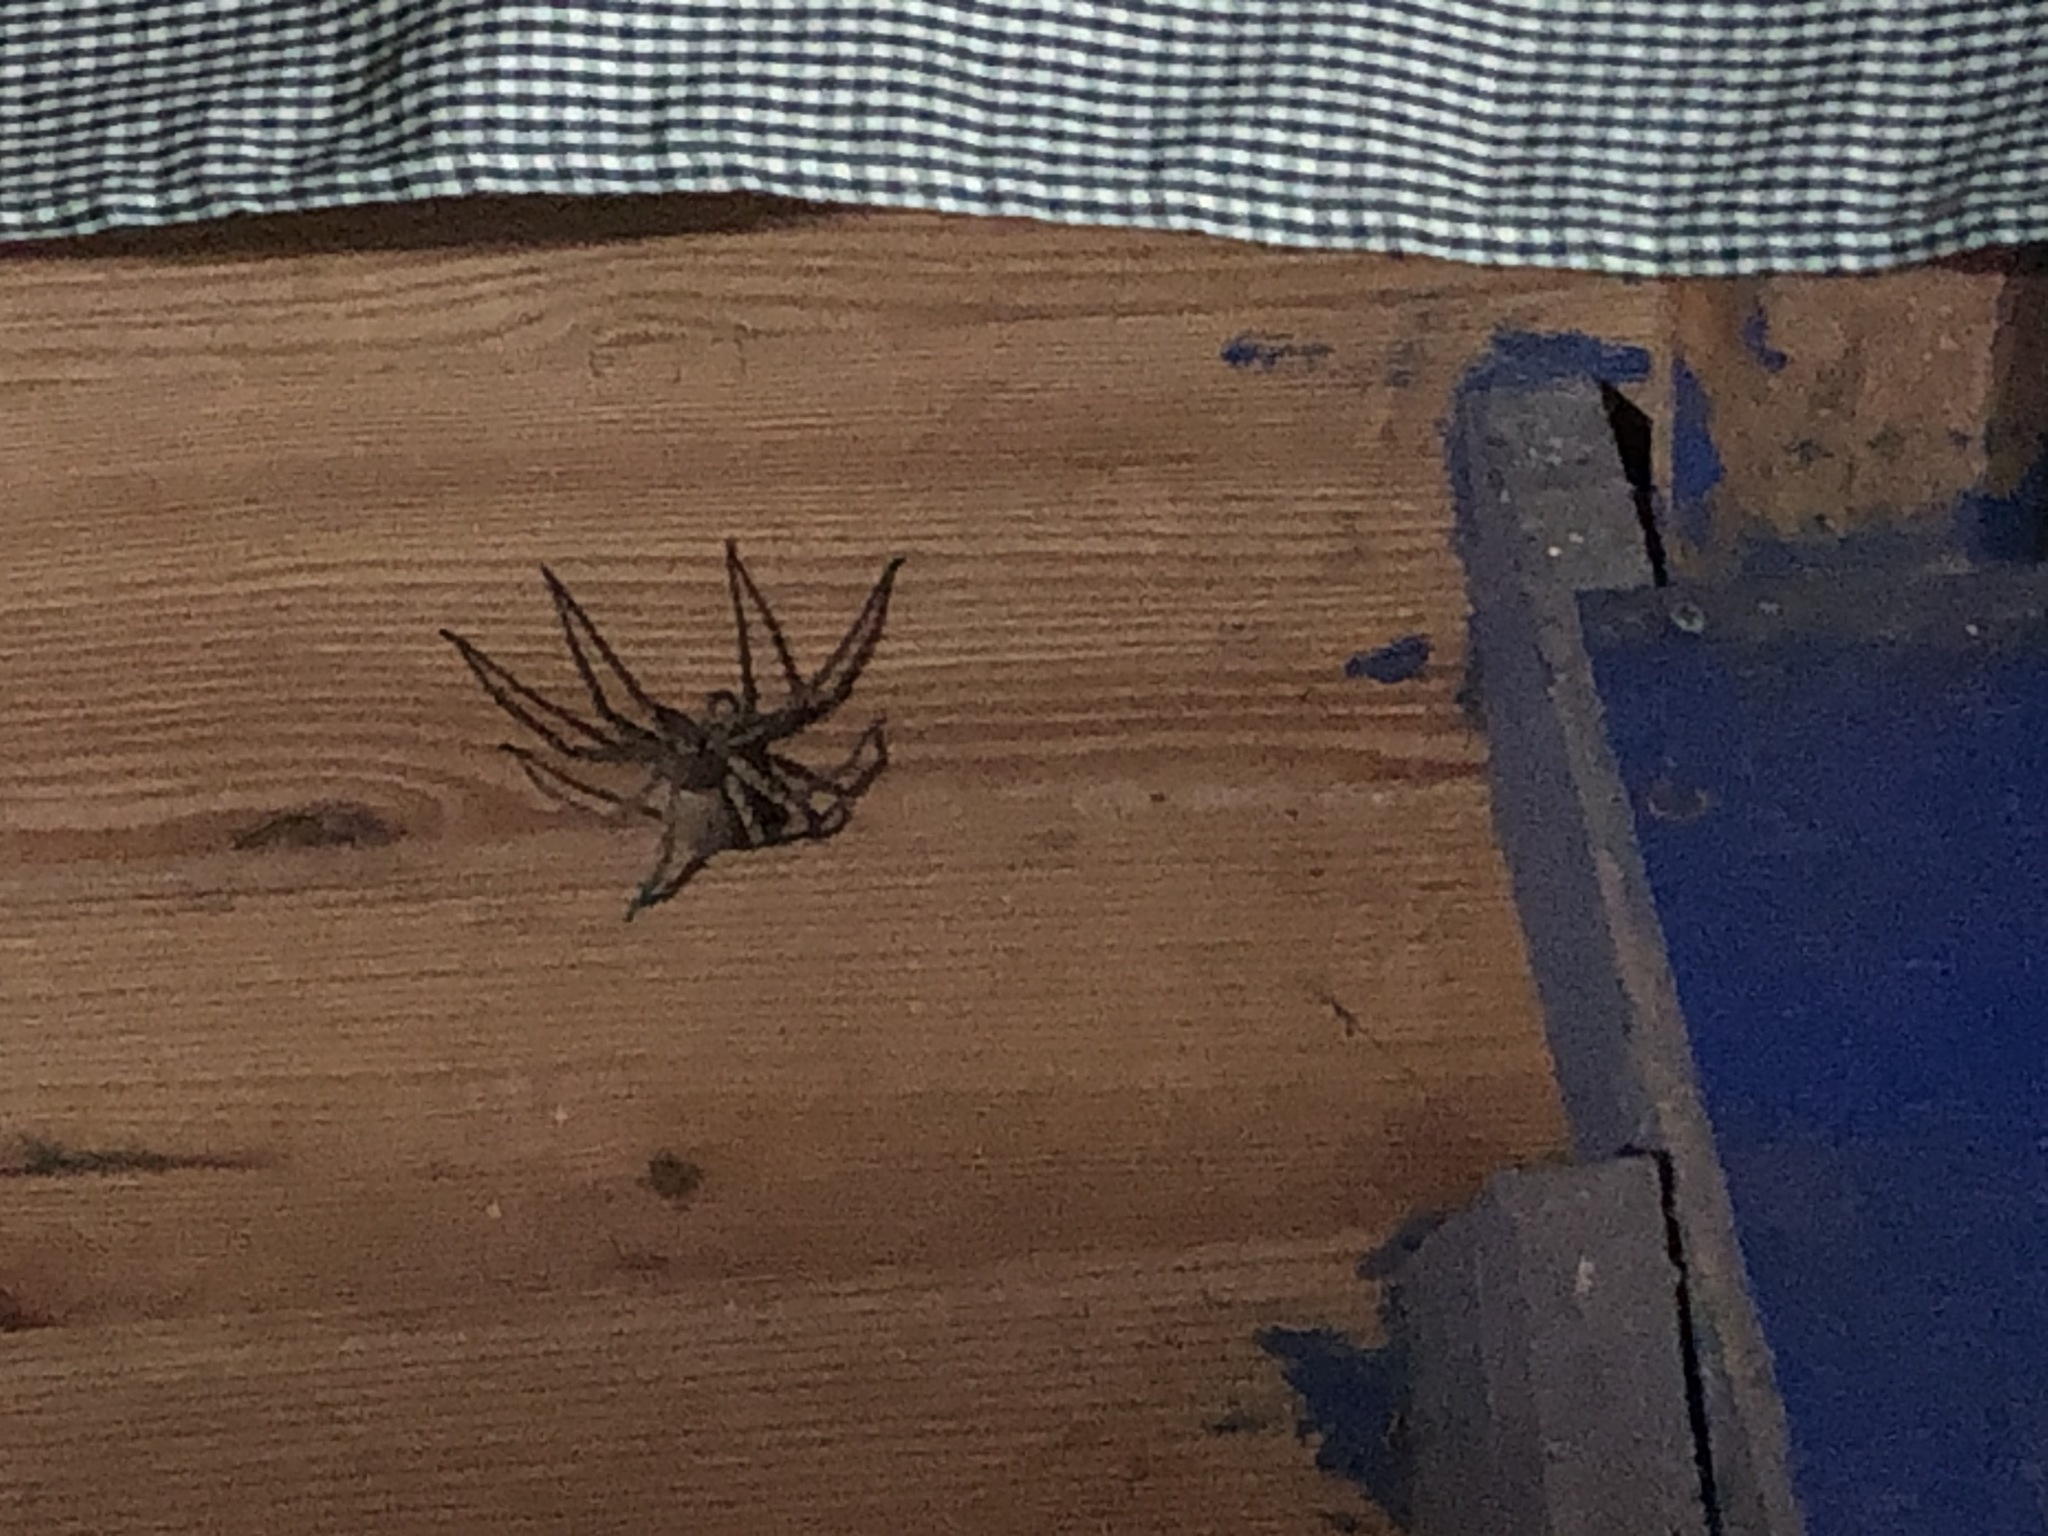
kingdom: Animalia
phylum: Arthropoda
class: Arachnida
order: Araneae
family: Sparassidae
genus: Heteropoda
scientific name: Heteropoda venatoria
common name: Huntsman spider
